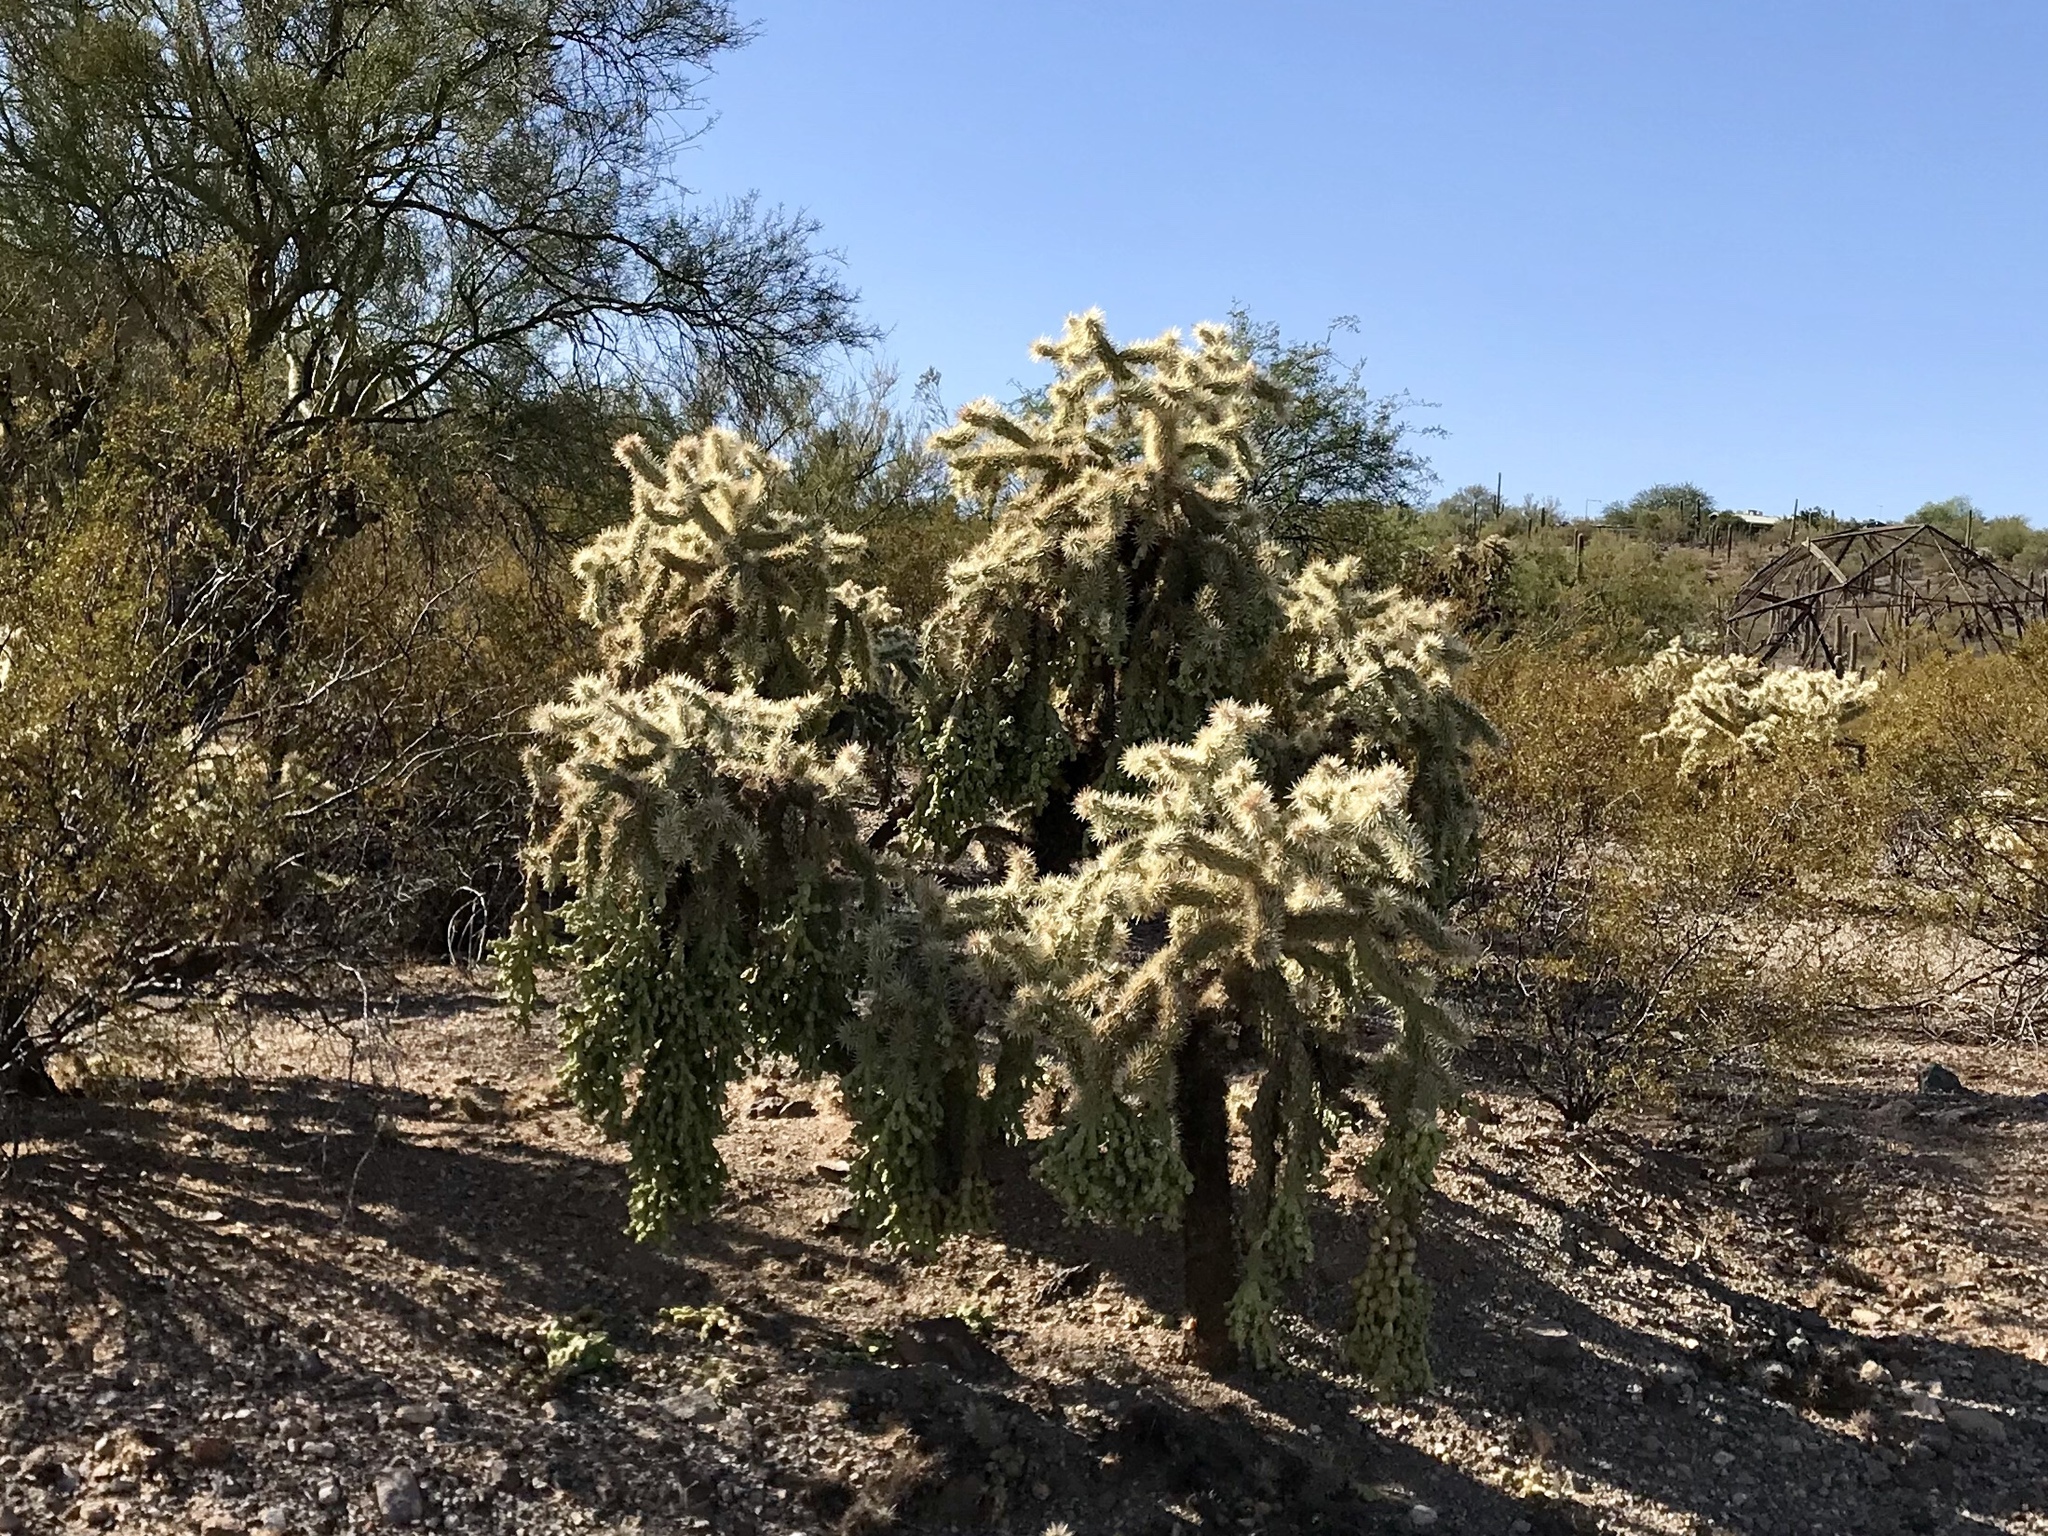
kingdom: Plantae
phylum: Tracheophyta
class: Magnoliopsida
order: Caryophyllales
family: Cactaceae
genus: Cylindropuntia
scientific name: Cylindropuntia fulgida
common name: Jumping cholla
